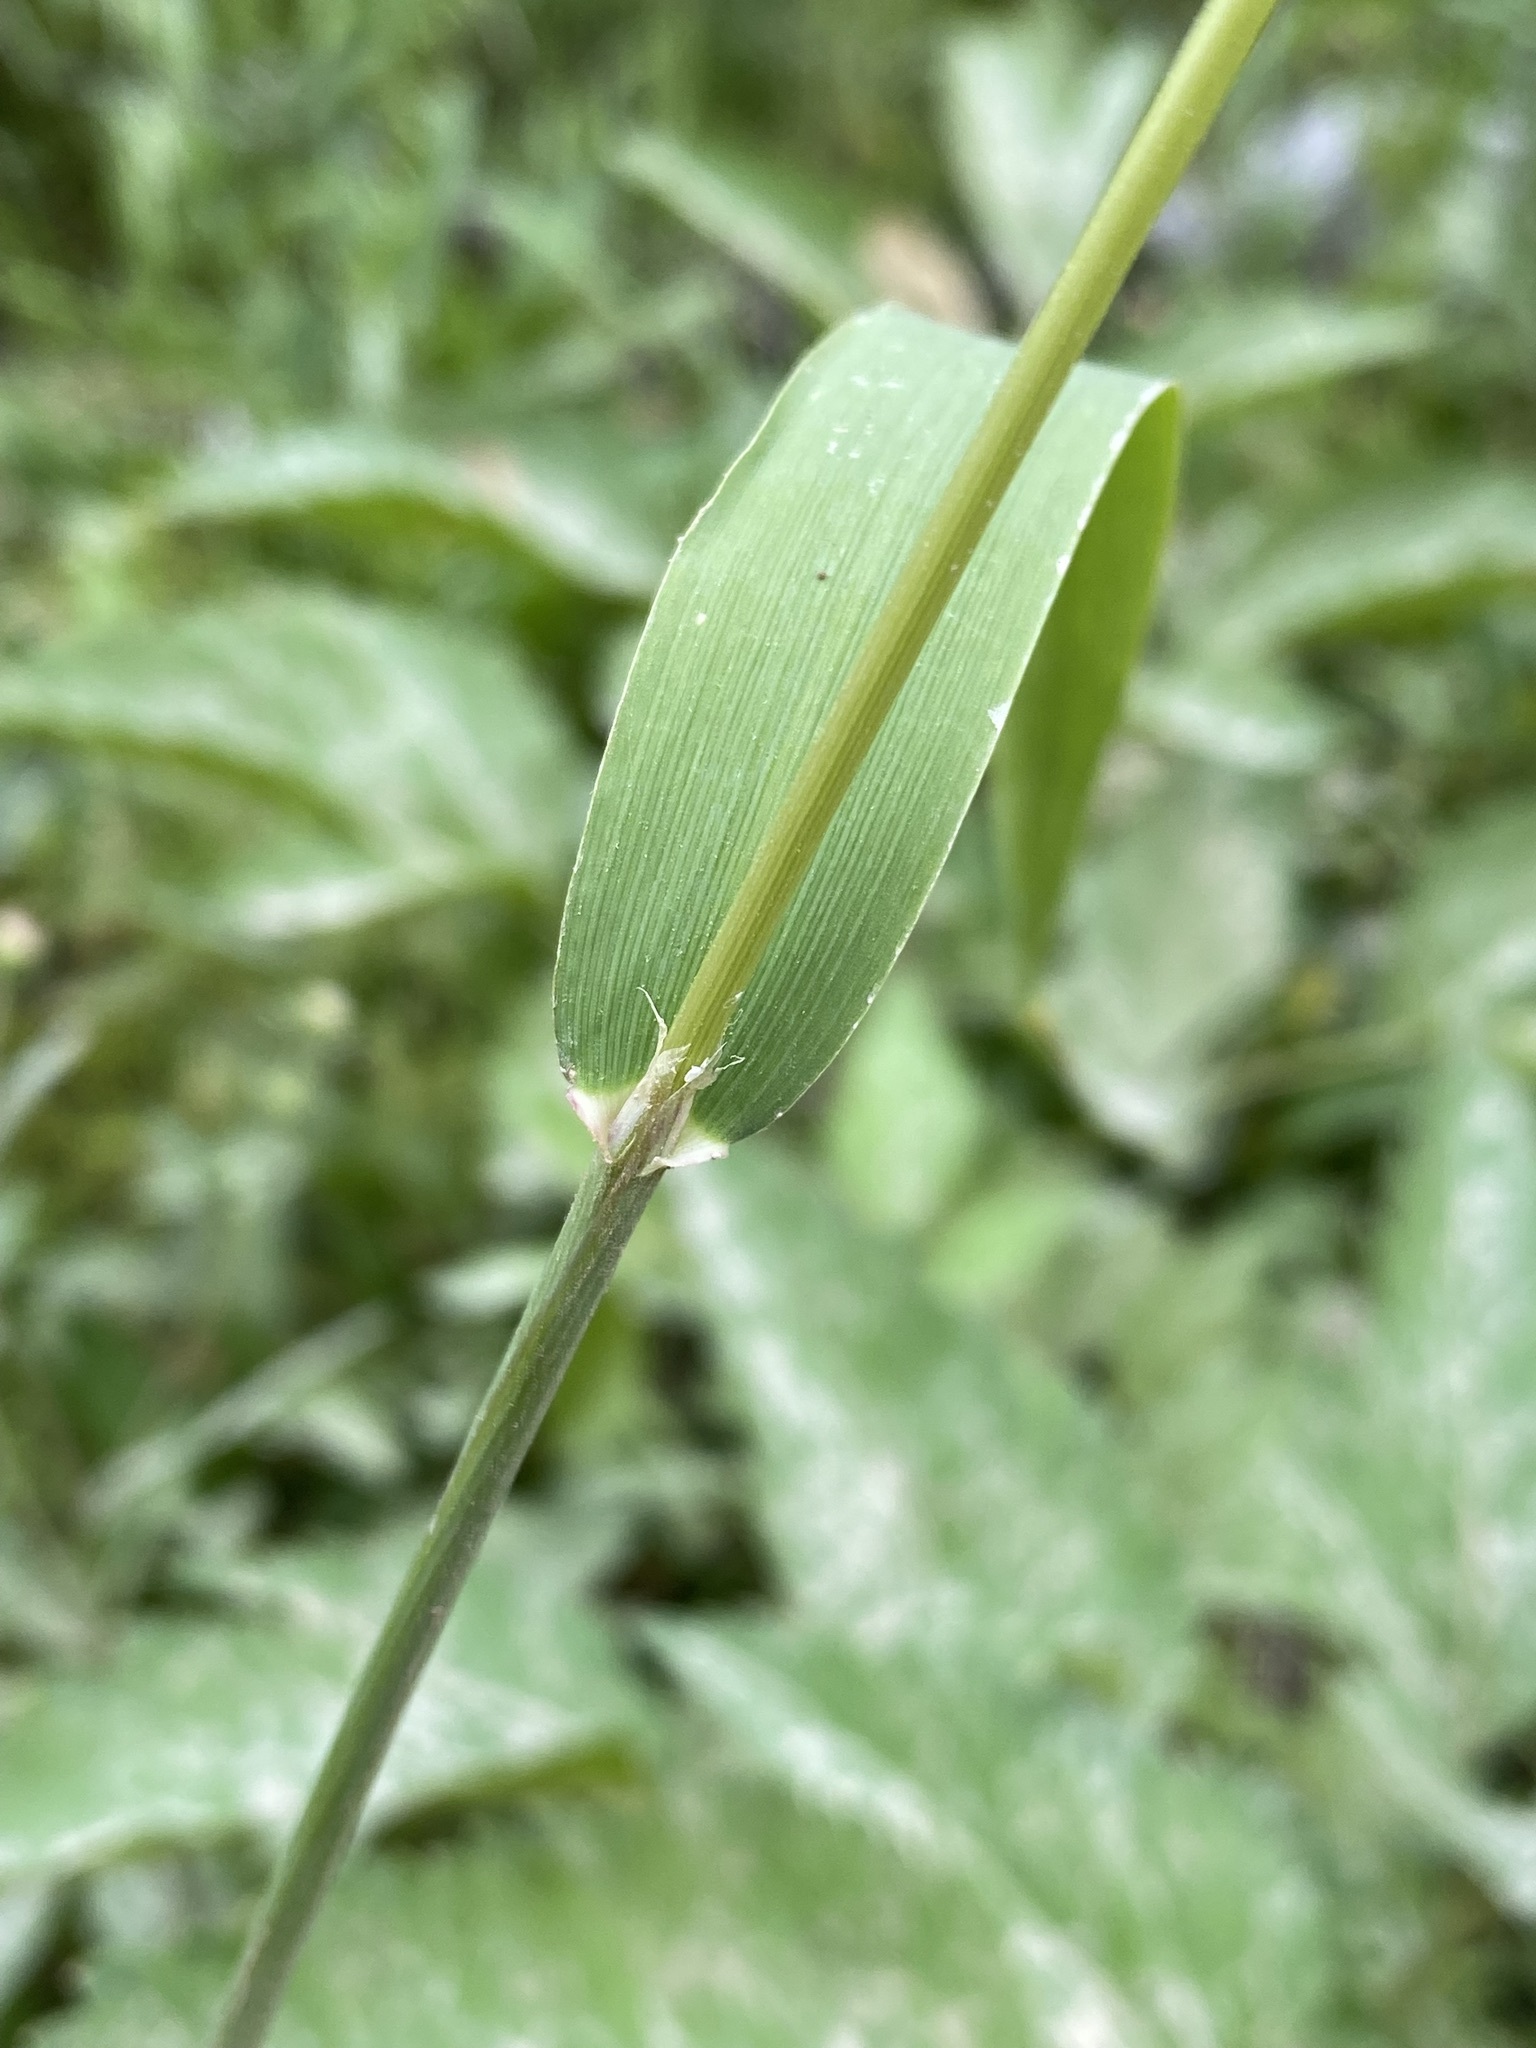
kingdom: Plantae
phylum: Tracheophyta
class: Liliopsida
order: Poales
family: Poaceae
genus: Cinna
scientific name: Cinna latifolia
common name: Drooping woodreed
